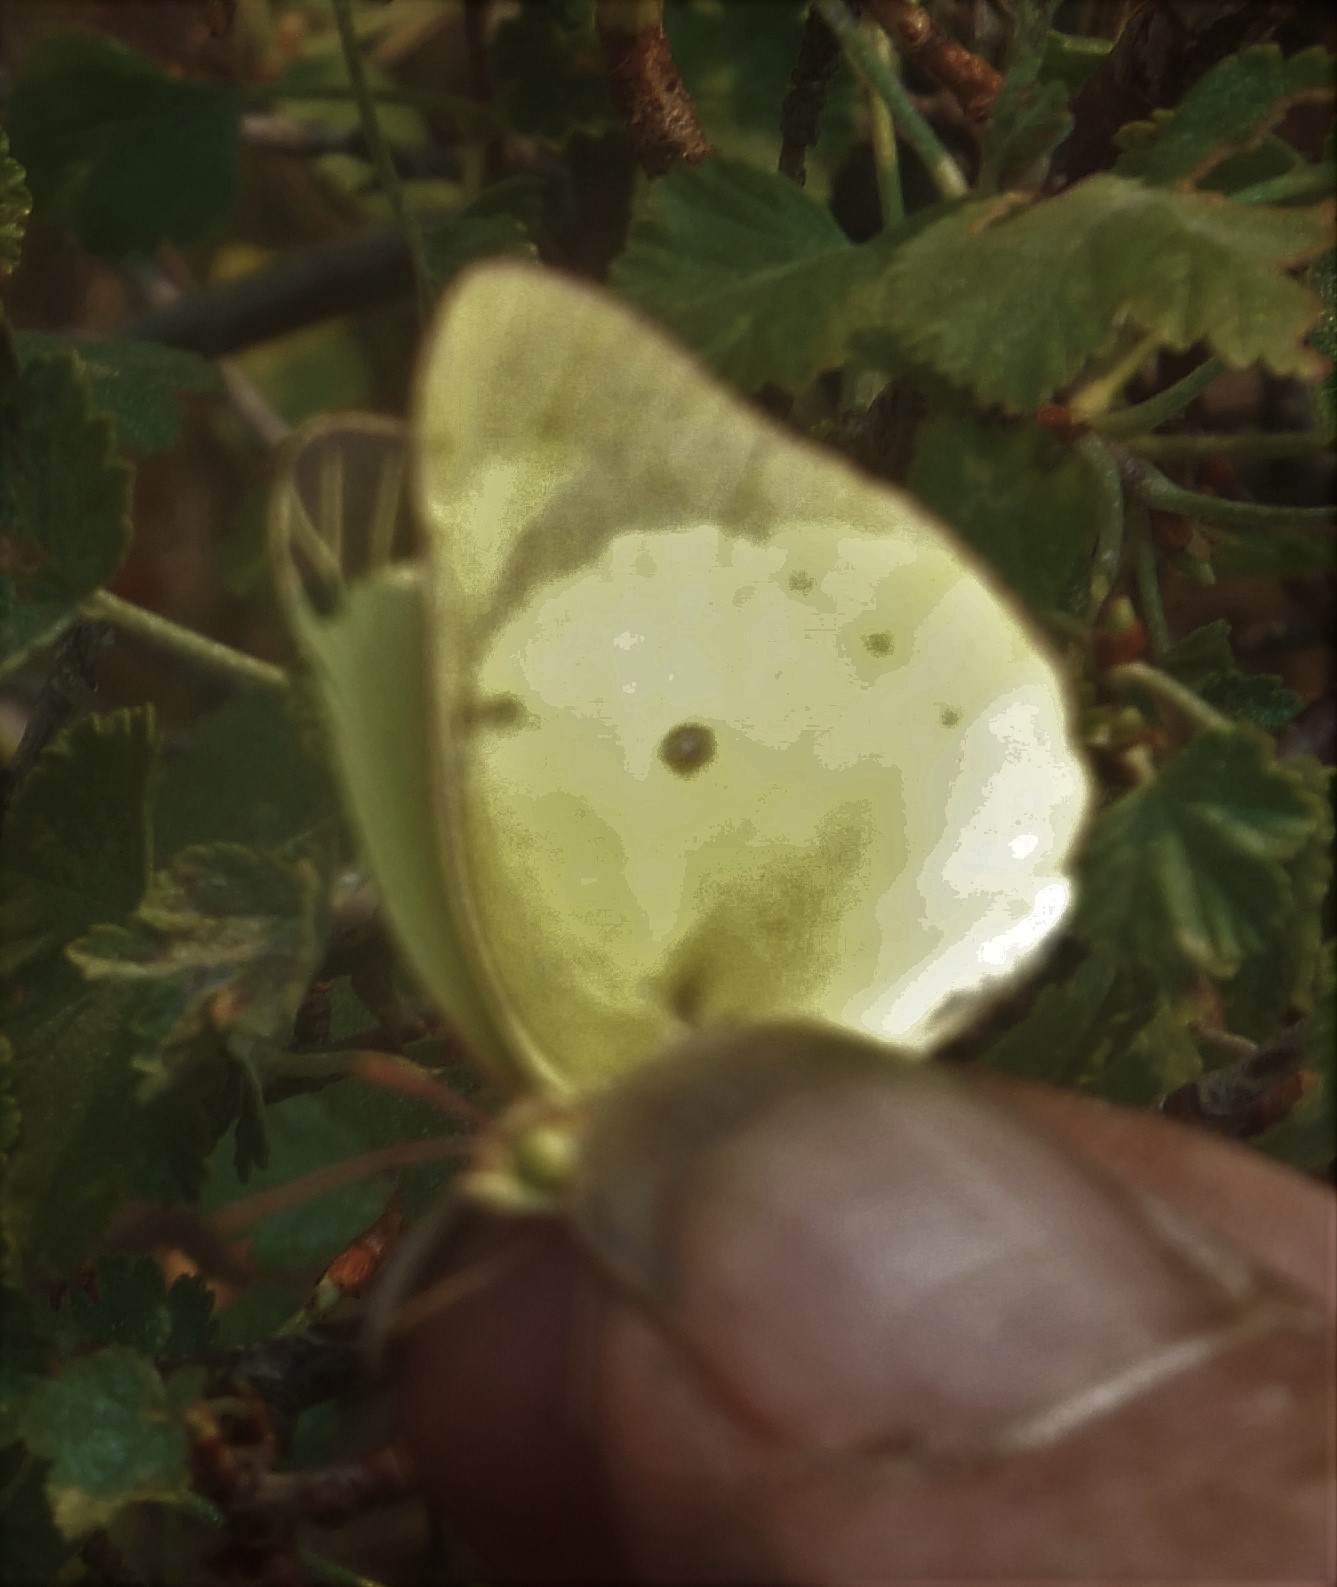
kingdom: Animalia
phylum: Arthropoda
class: Insecta
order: Lepidoptera
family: Pieridae
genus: Colias
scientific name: Colias philodice
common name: Clouded sulphur
